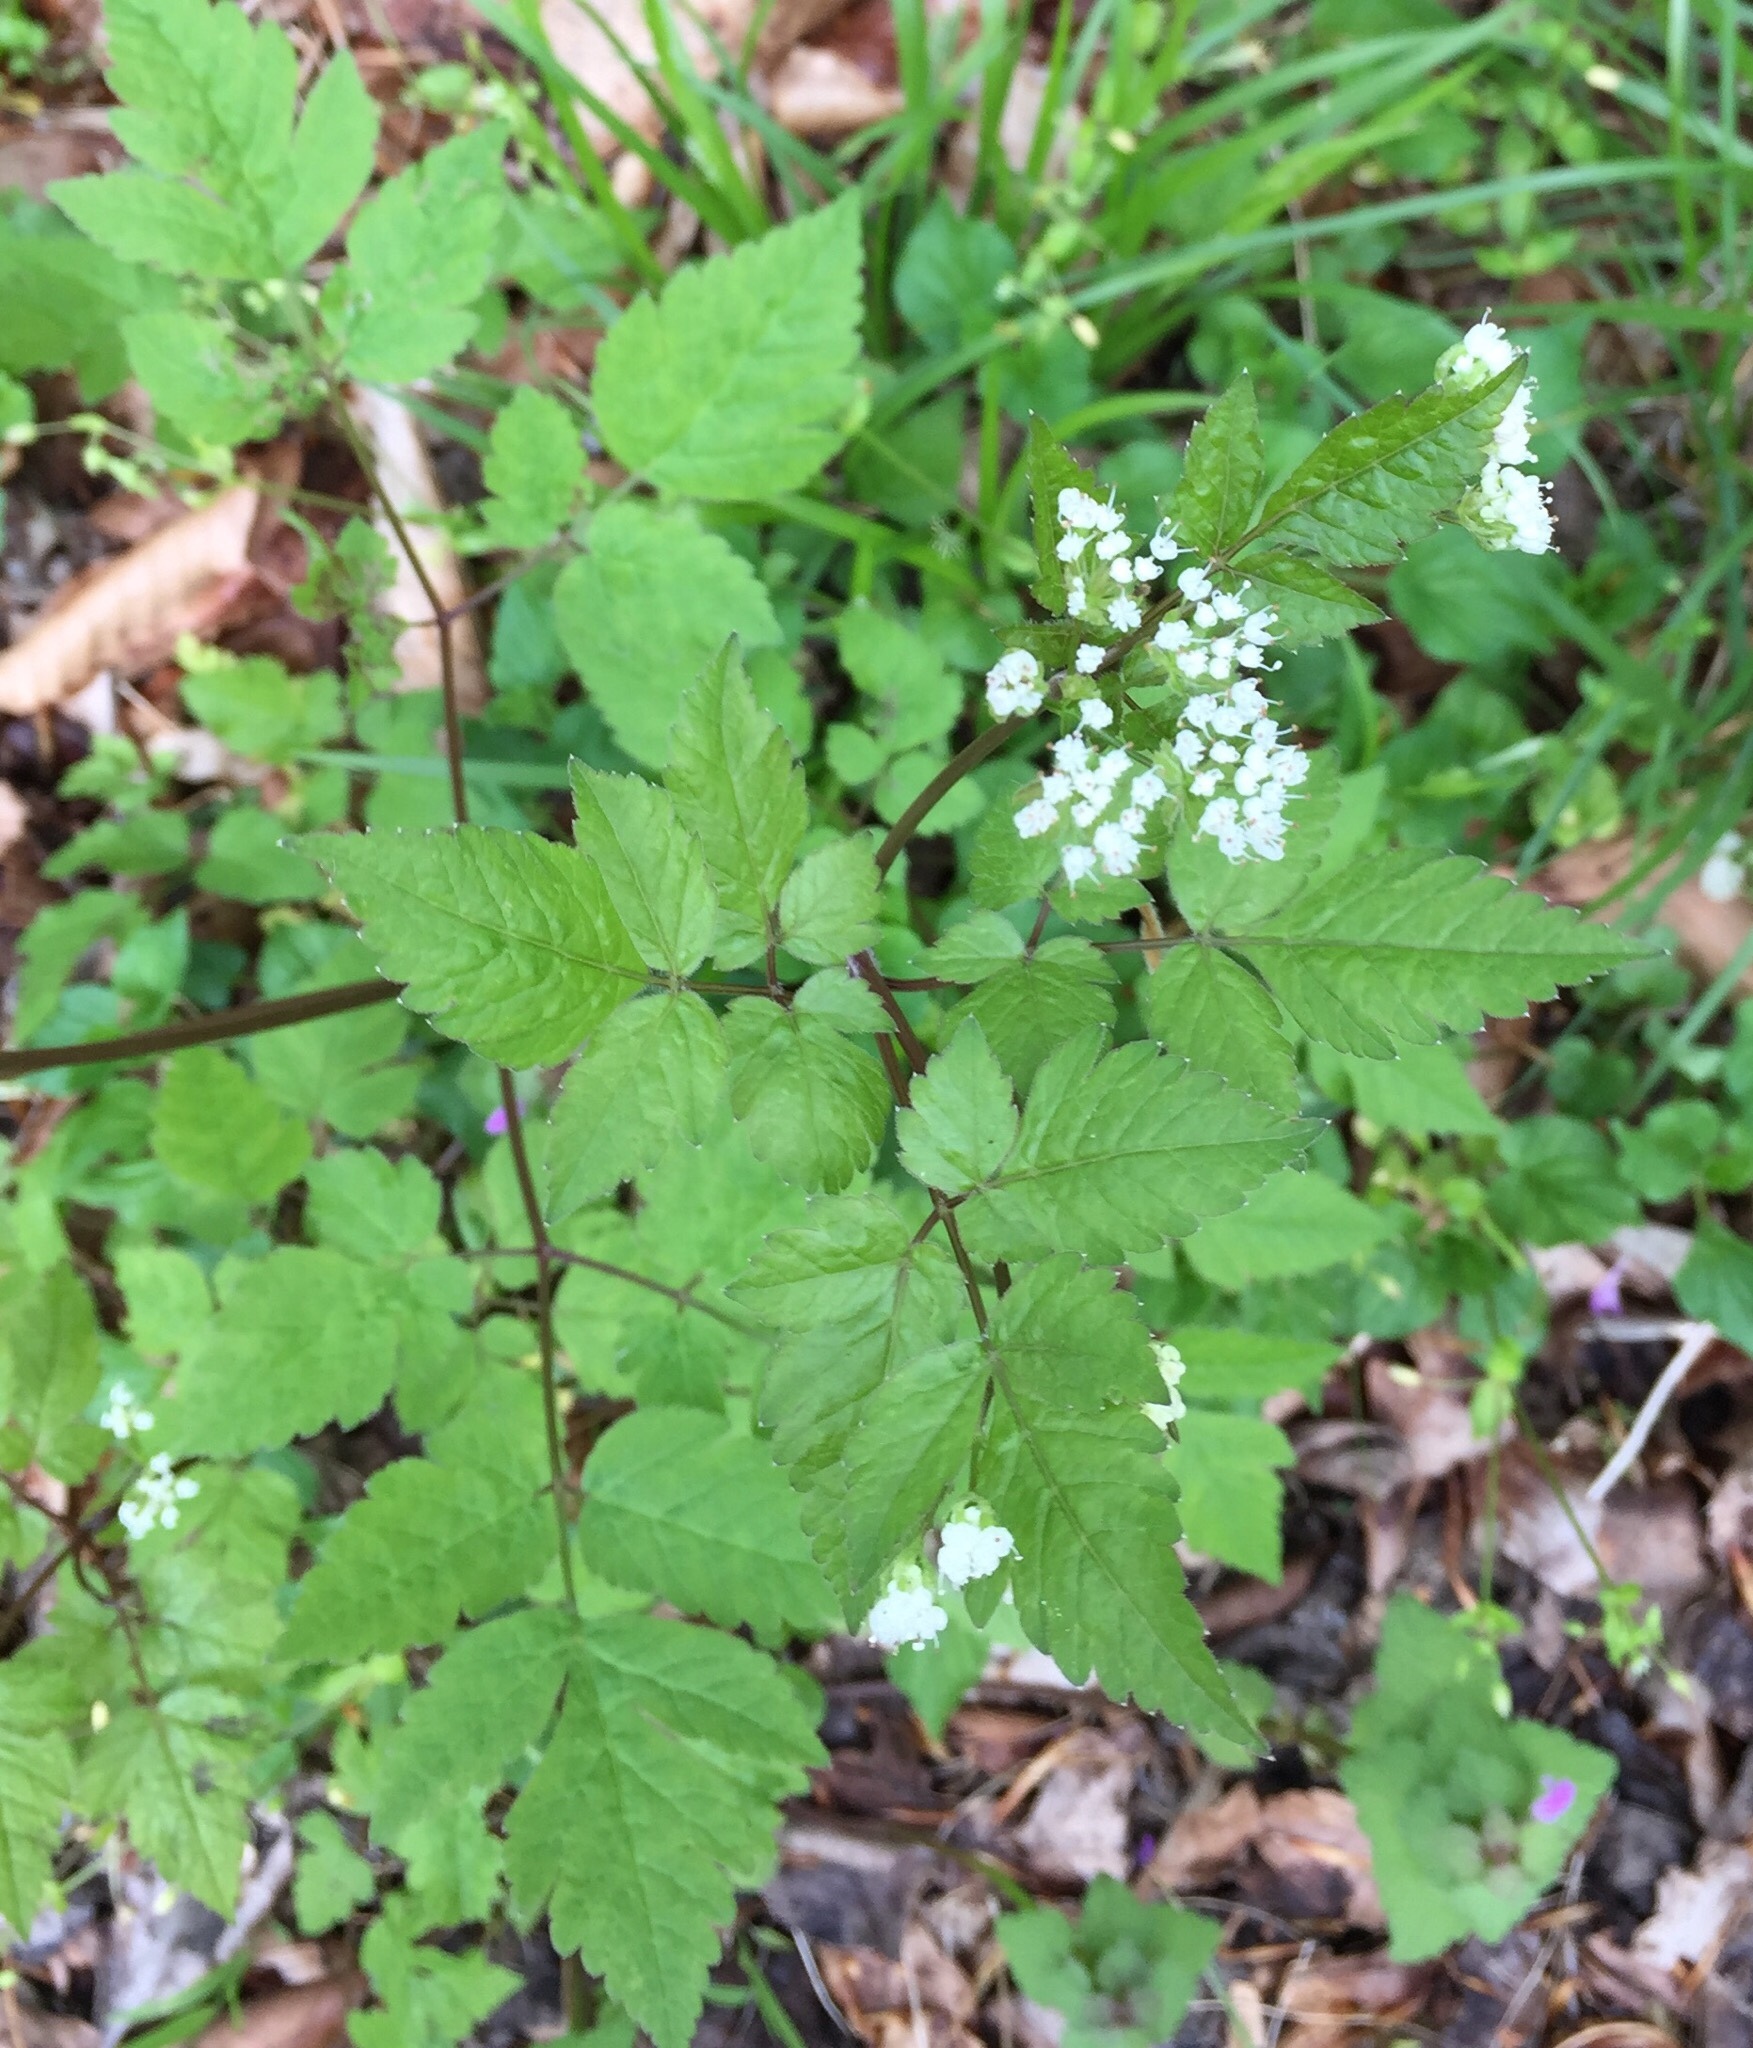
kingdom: Plantae
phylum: Tracheophyta
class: Magnoliopsida
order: Apiales
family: Apiaceae
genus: Osmorhiza
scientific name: Osmorhiza longistylis
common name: Smooth sweet cicely
